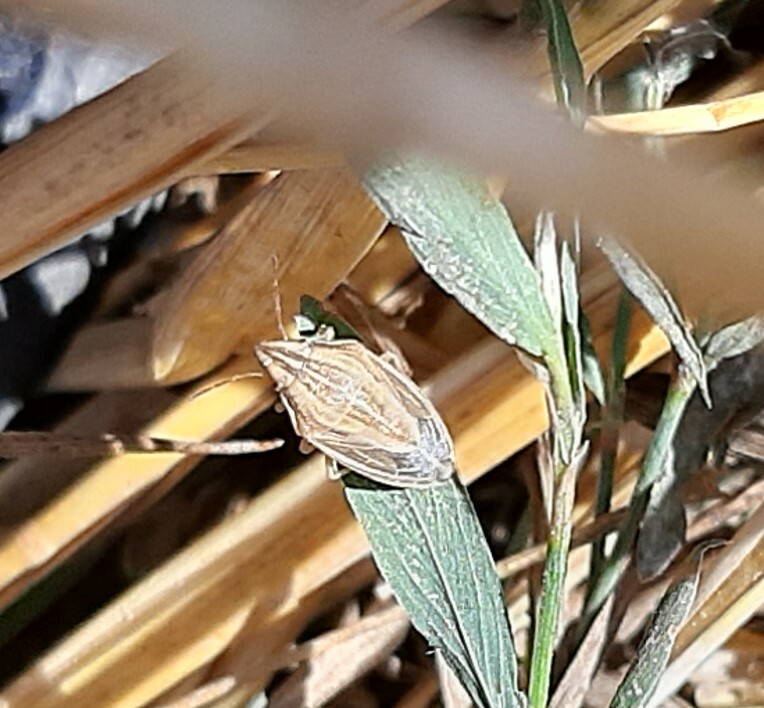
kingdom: Animalia
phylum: Arthropoda
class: Insecta
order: Hemiptera
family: Pentatomidae
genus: Aelia
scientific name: Aelia acuminata
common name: Bishop's mitre
